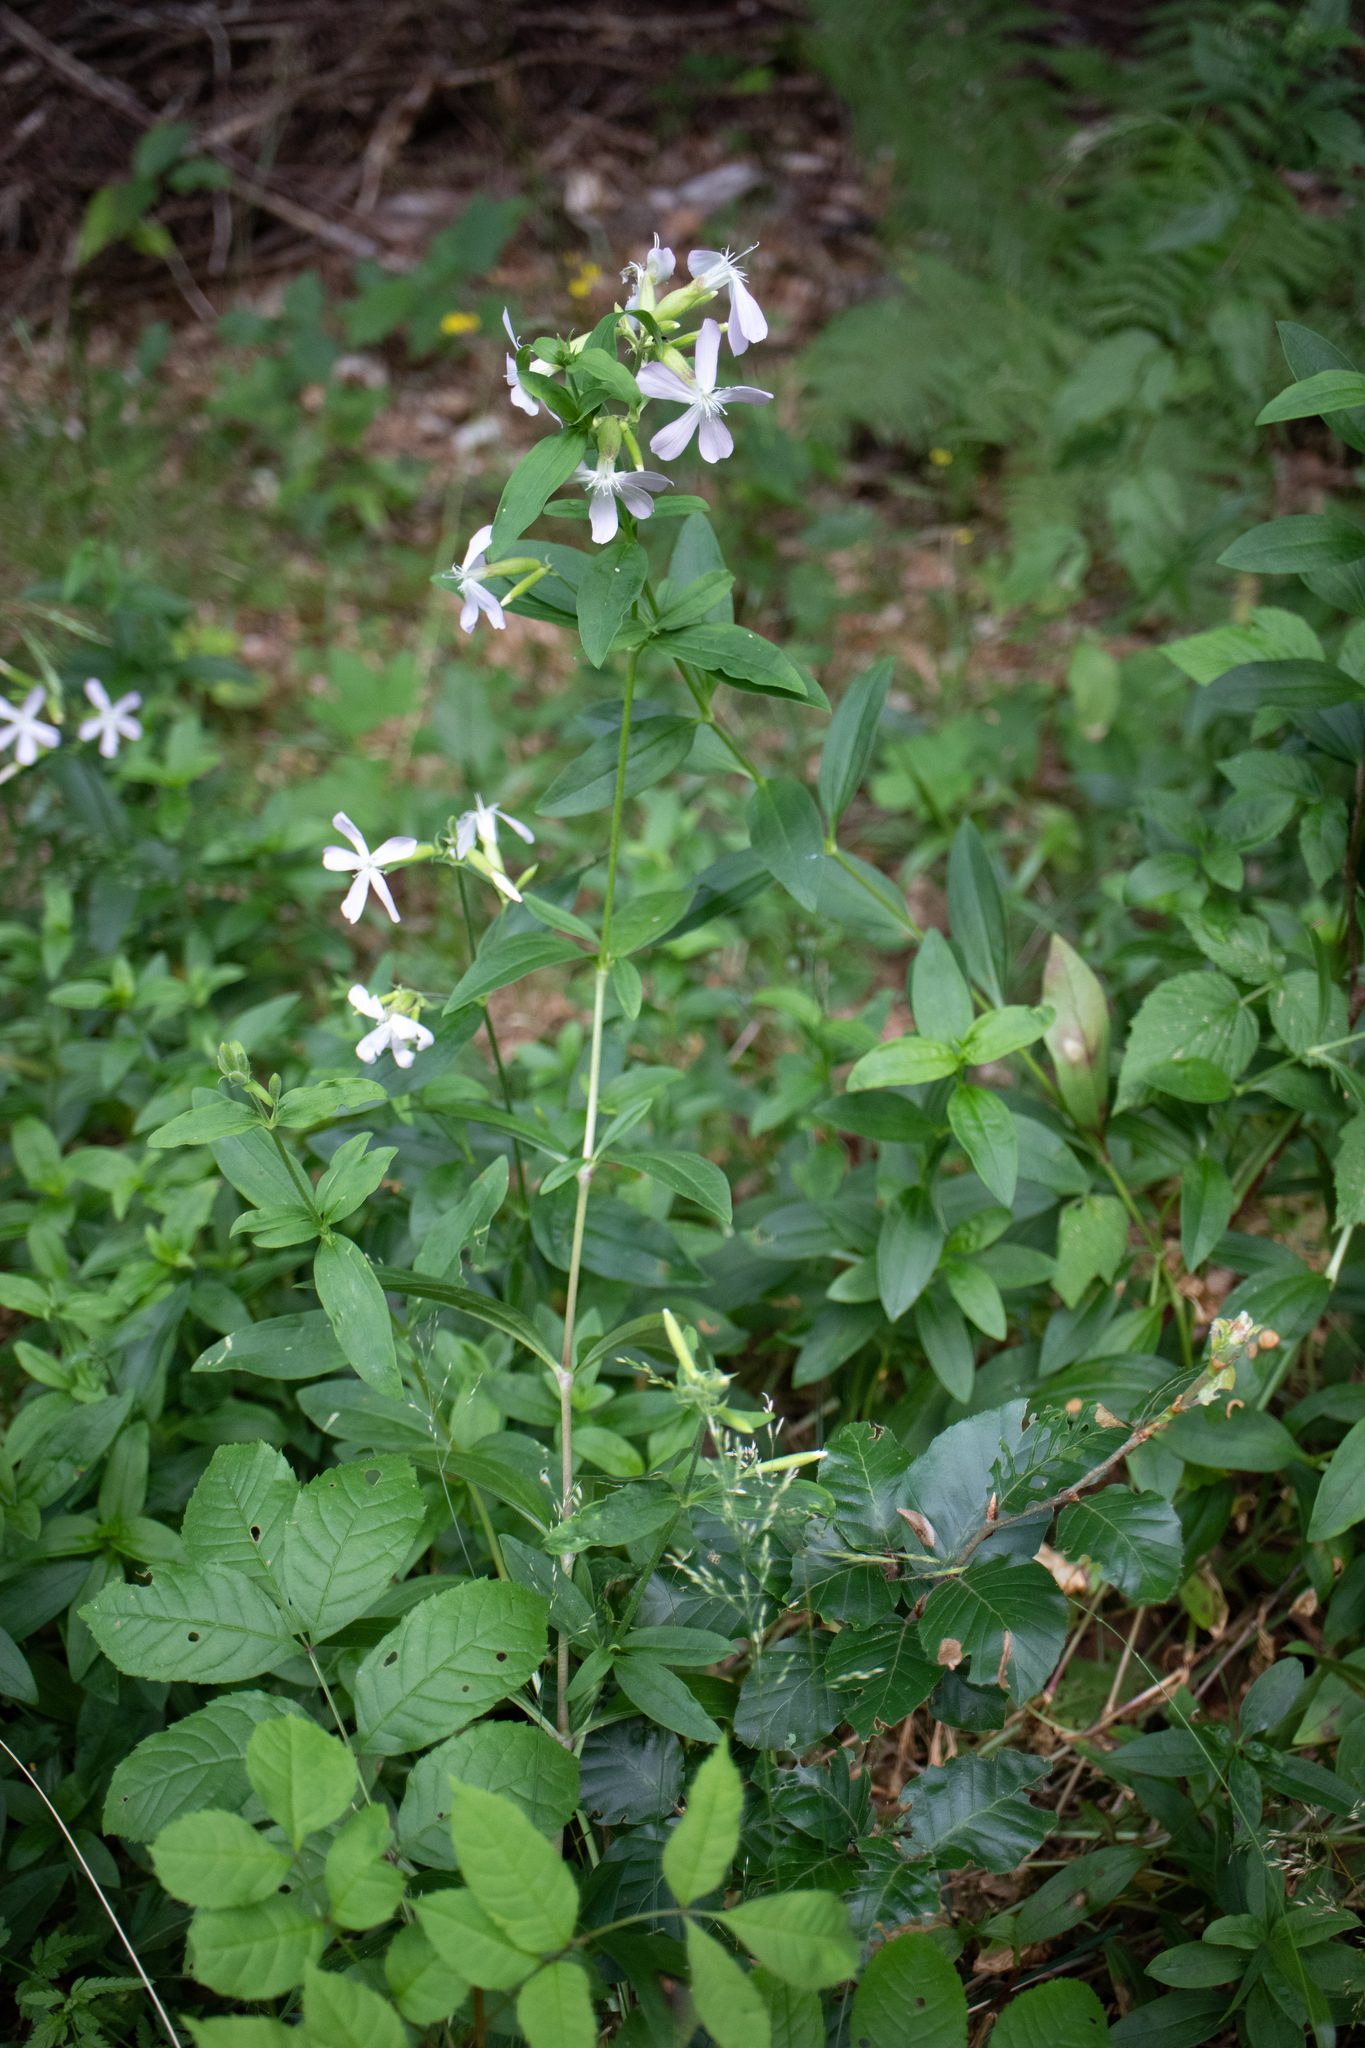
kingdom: Plantae
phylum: Tracheophyta
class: Magnoliopsida
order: Caryophyllales
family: Caryophyllaceae
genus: Saponaria
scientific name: Saponaria officinalis
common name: Soapwort
